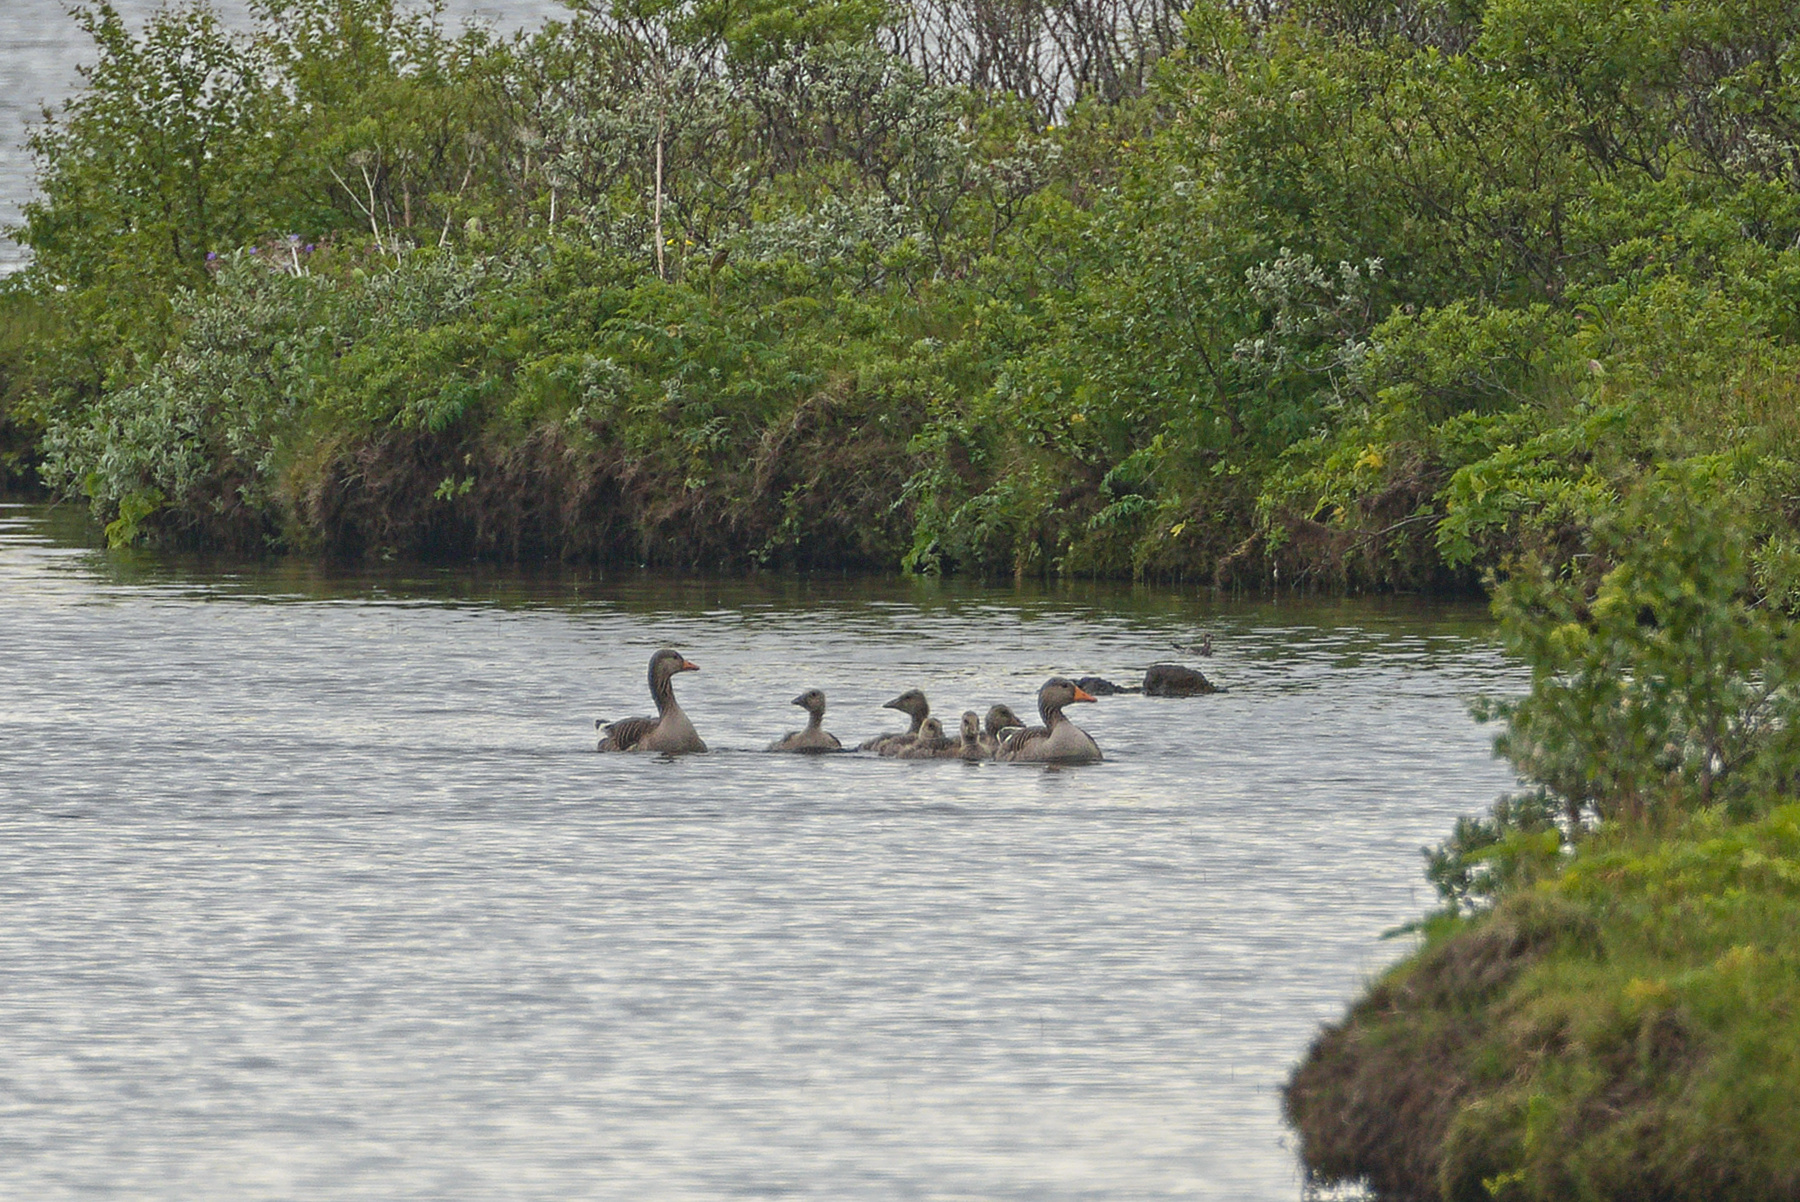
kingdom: Animalia
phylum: Chordata
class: Aves
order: Anseriformes
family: Anatidae
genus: Anser
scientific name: Anser anser
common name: Greylag goose
